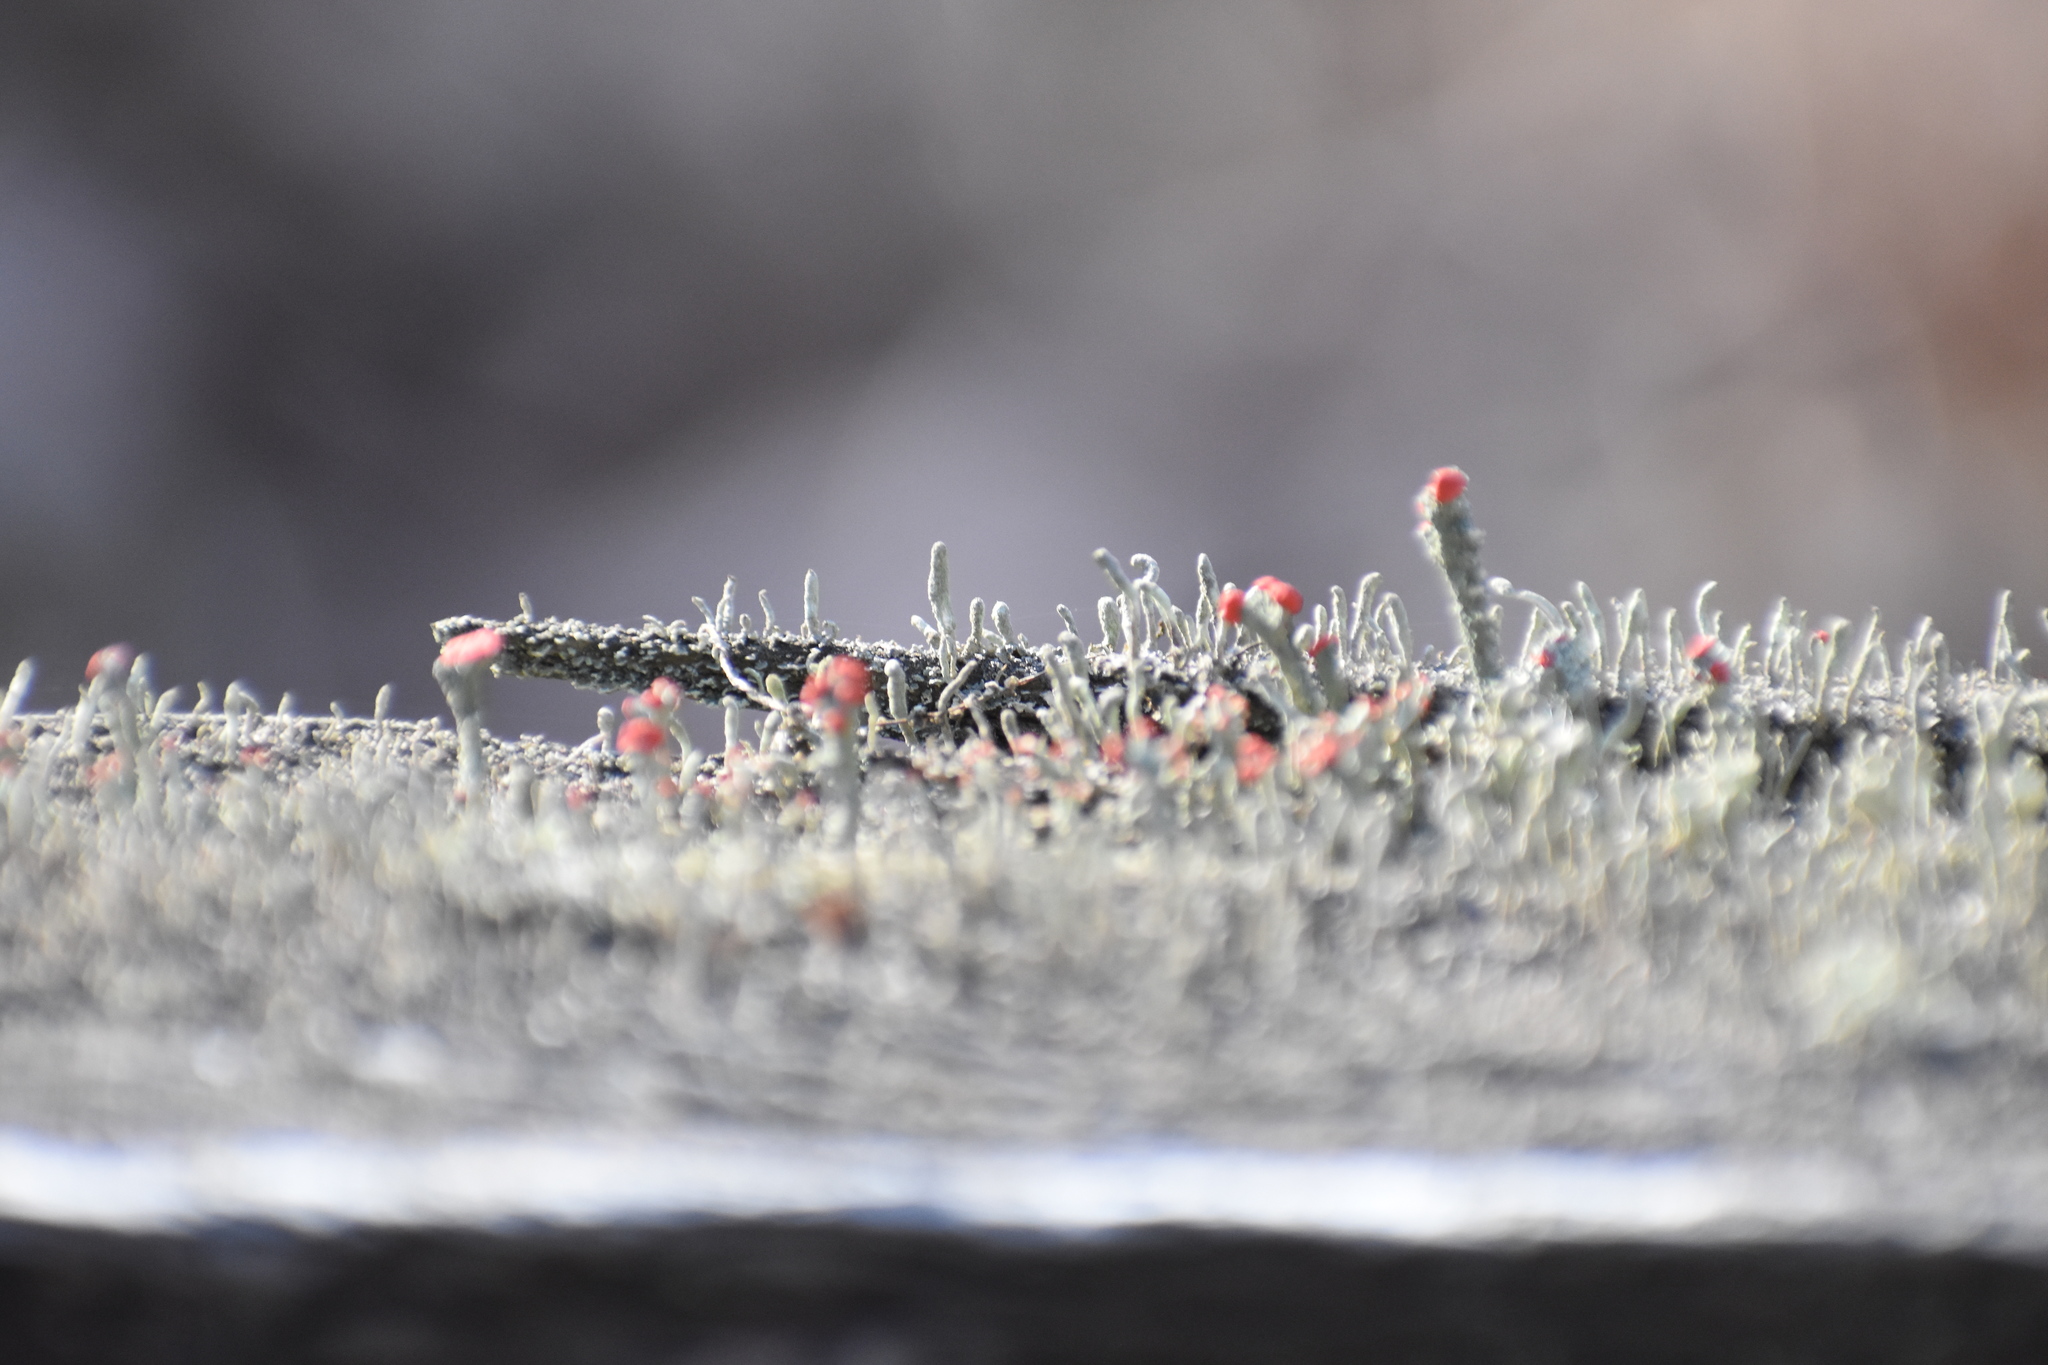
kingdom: Fungi
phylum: Ascomycota
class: Lecanoromycetes
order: Lecanorales
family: Cladoniaceae
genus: Cladonia
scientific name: Cladonia cristatella
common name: British soldier lichen
